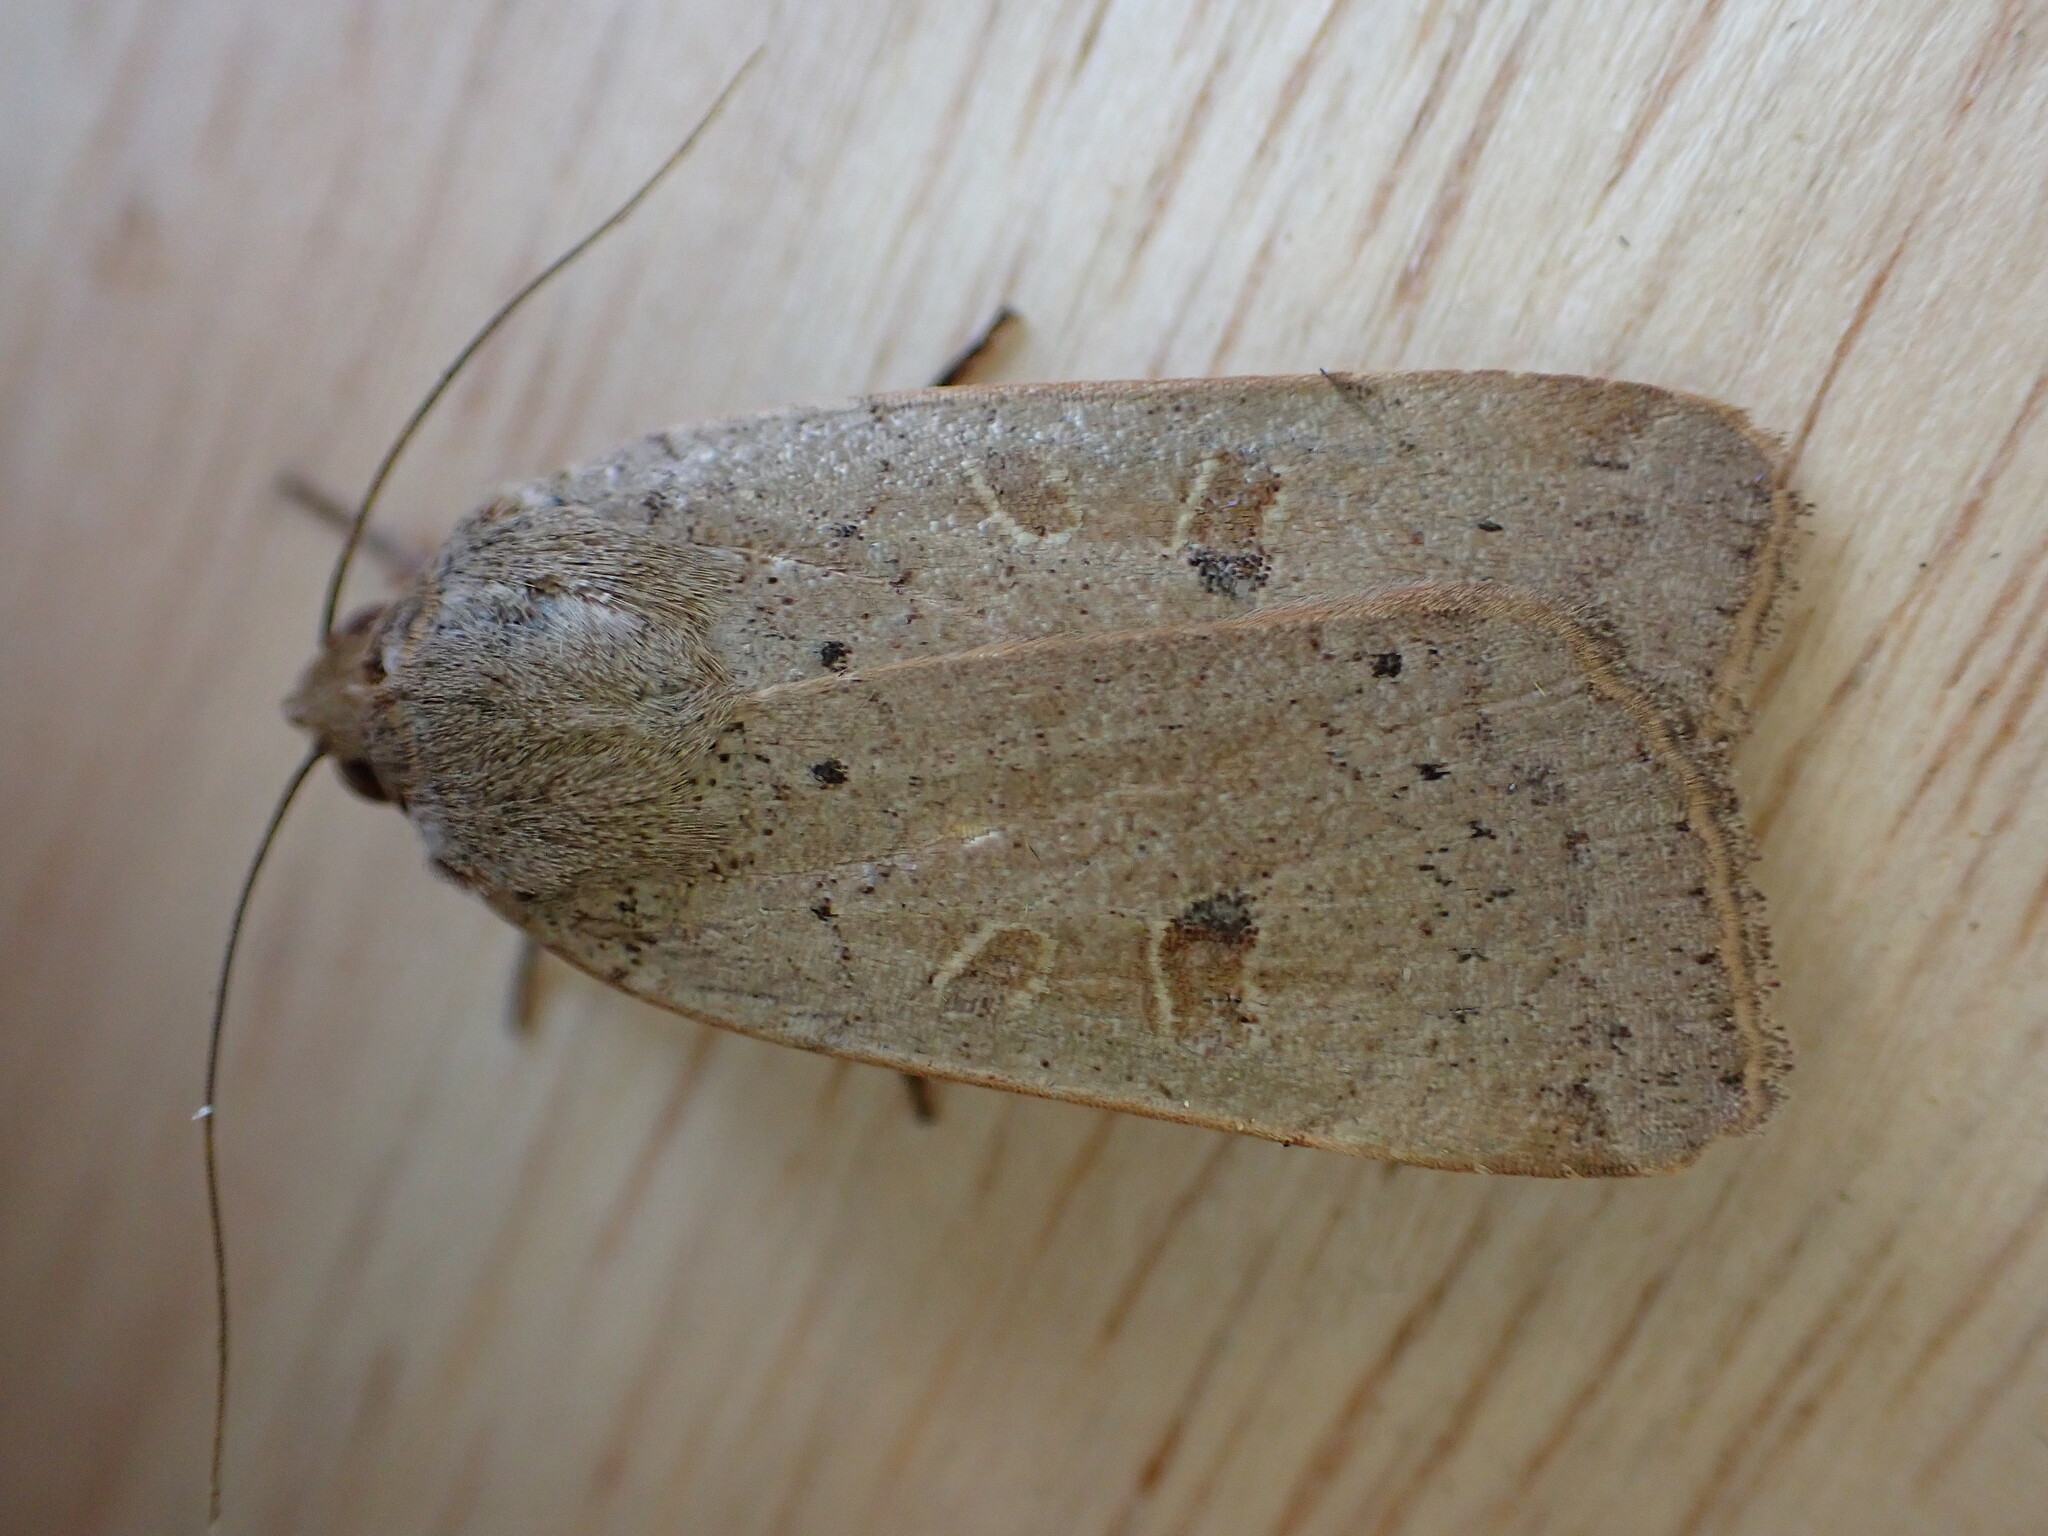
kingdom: Animalia
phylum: Arthropoda
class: Insecta
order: Lepidoptera
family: Noctuidae
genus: Noctua
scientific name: Noctua comes
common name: Lesser yellow underwing
